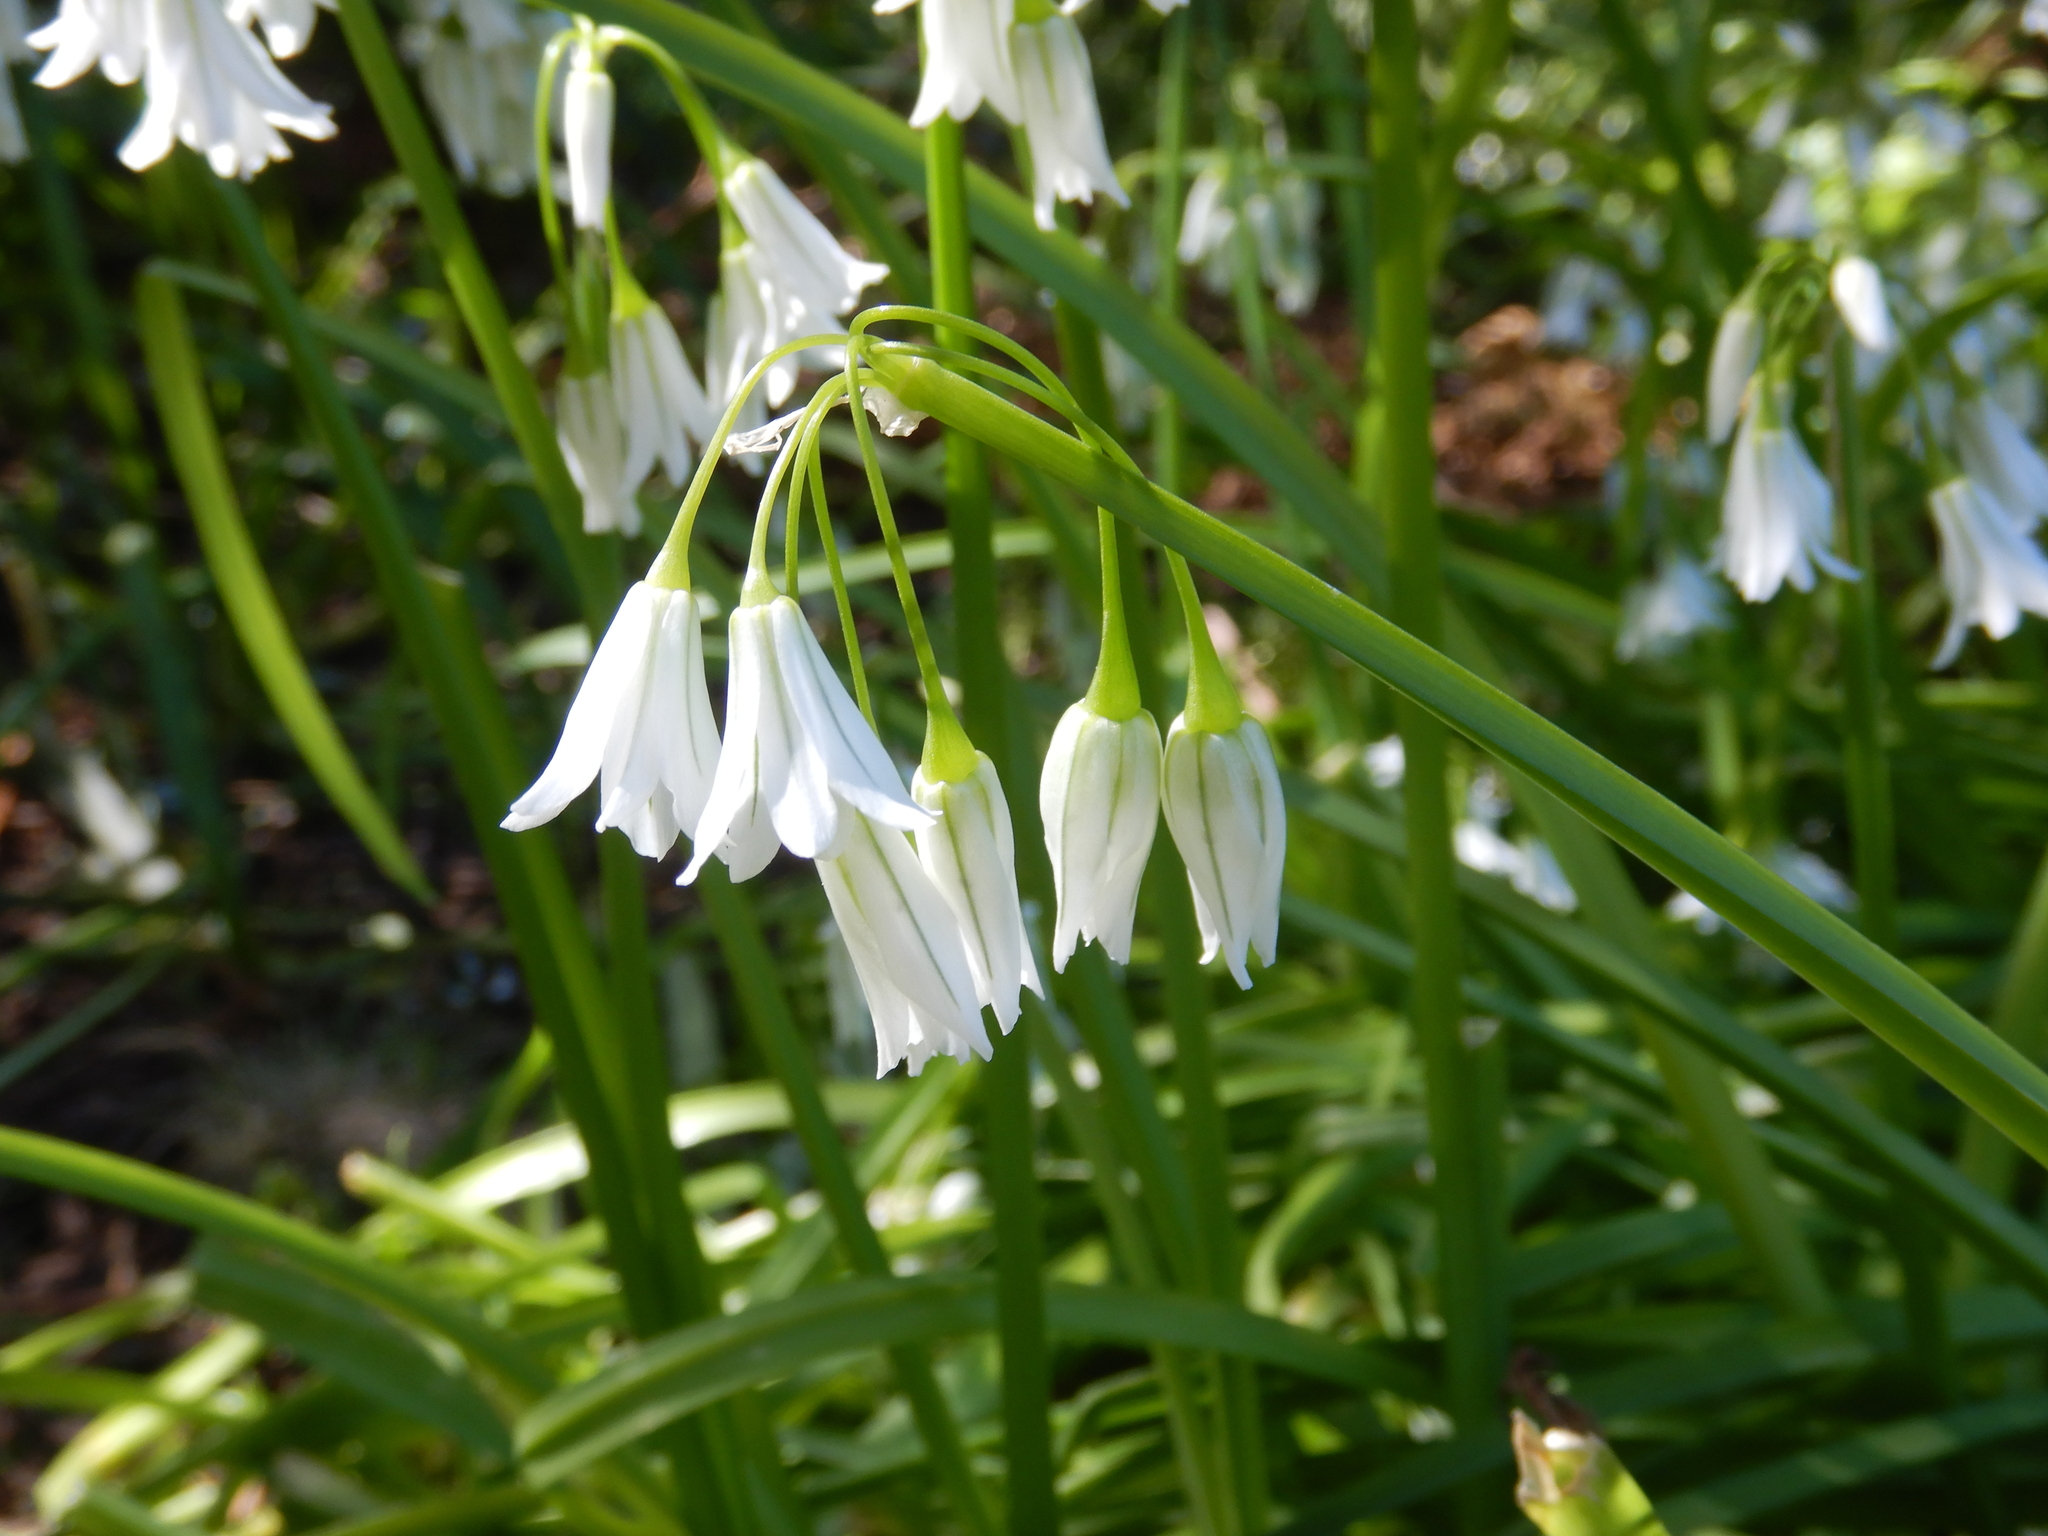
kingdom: Plantae
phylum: Tracheophyta
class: Liliopsida
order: Asparagales
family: Amaryllidaceae
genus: Allium
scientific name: Allium triquetrum
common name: Three-cornered garlic
